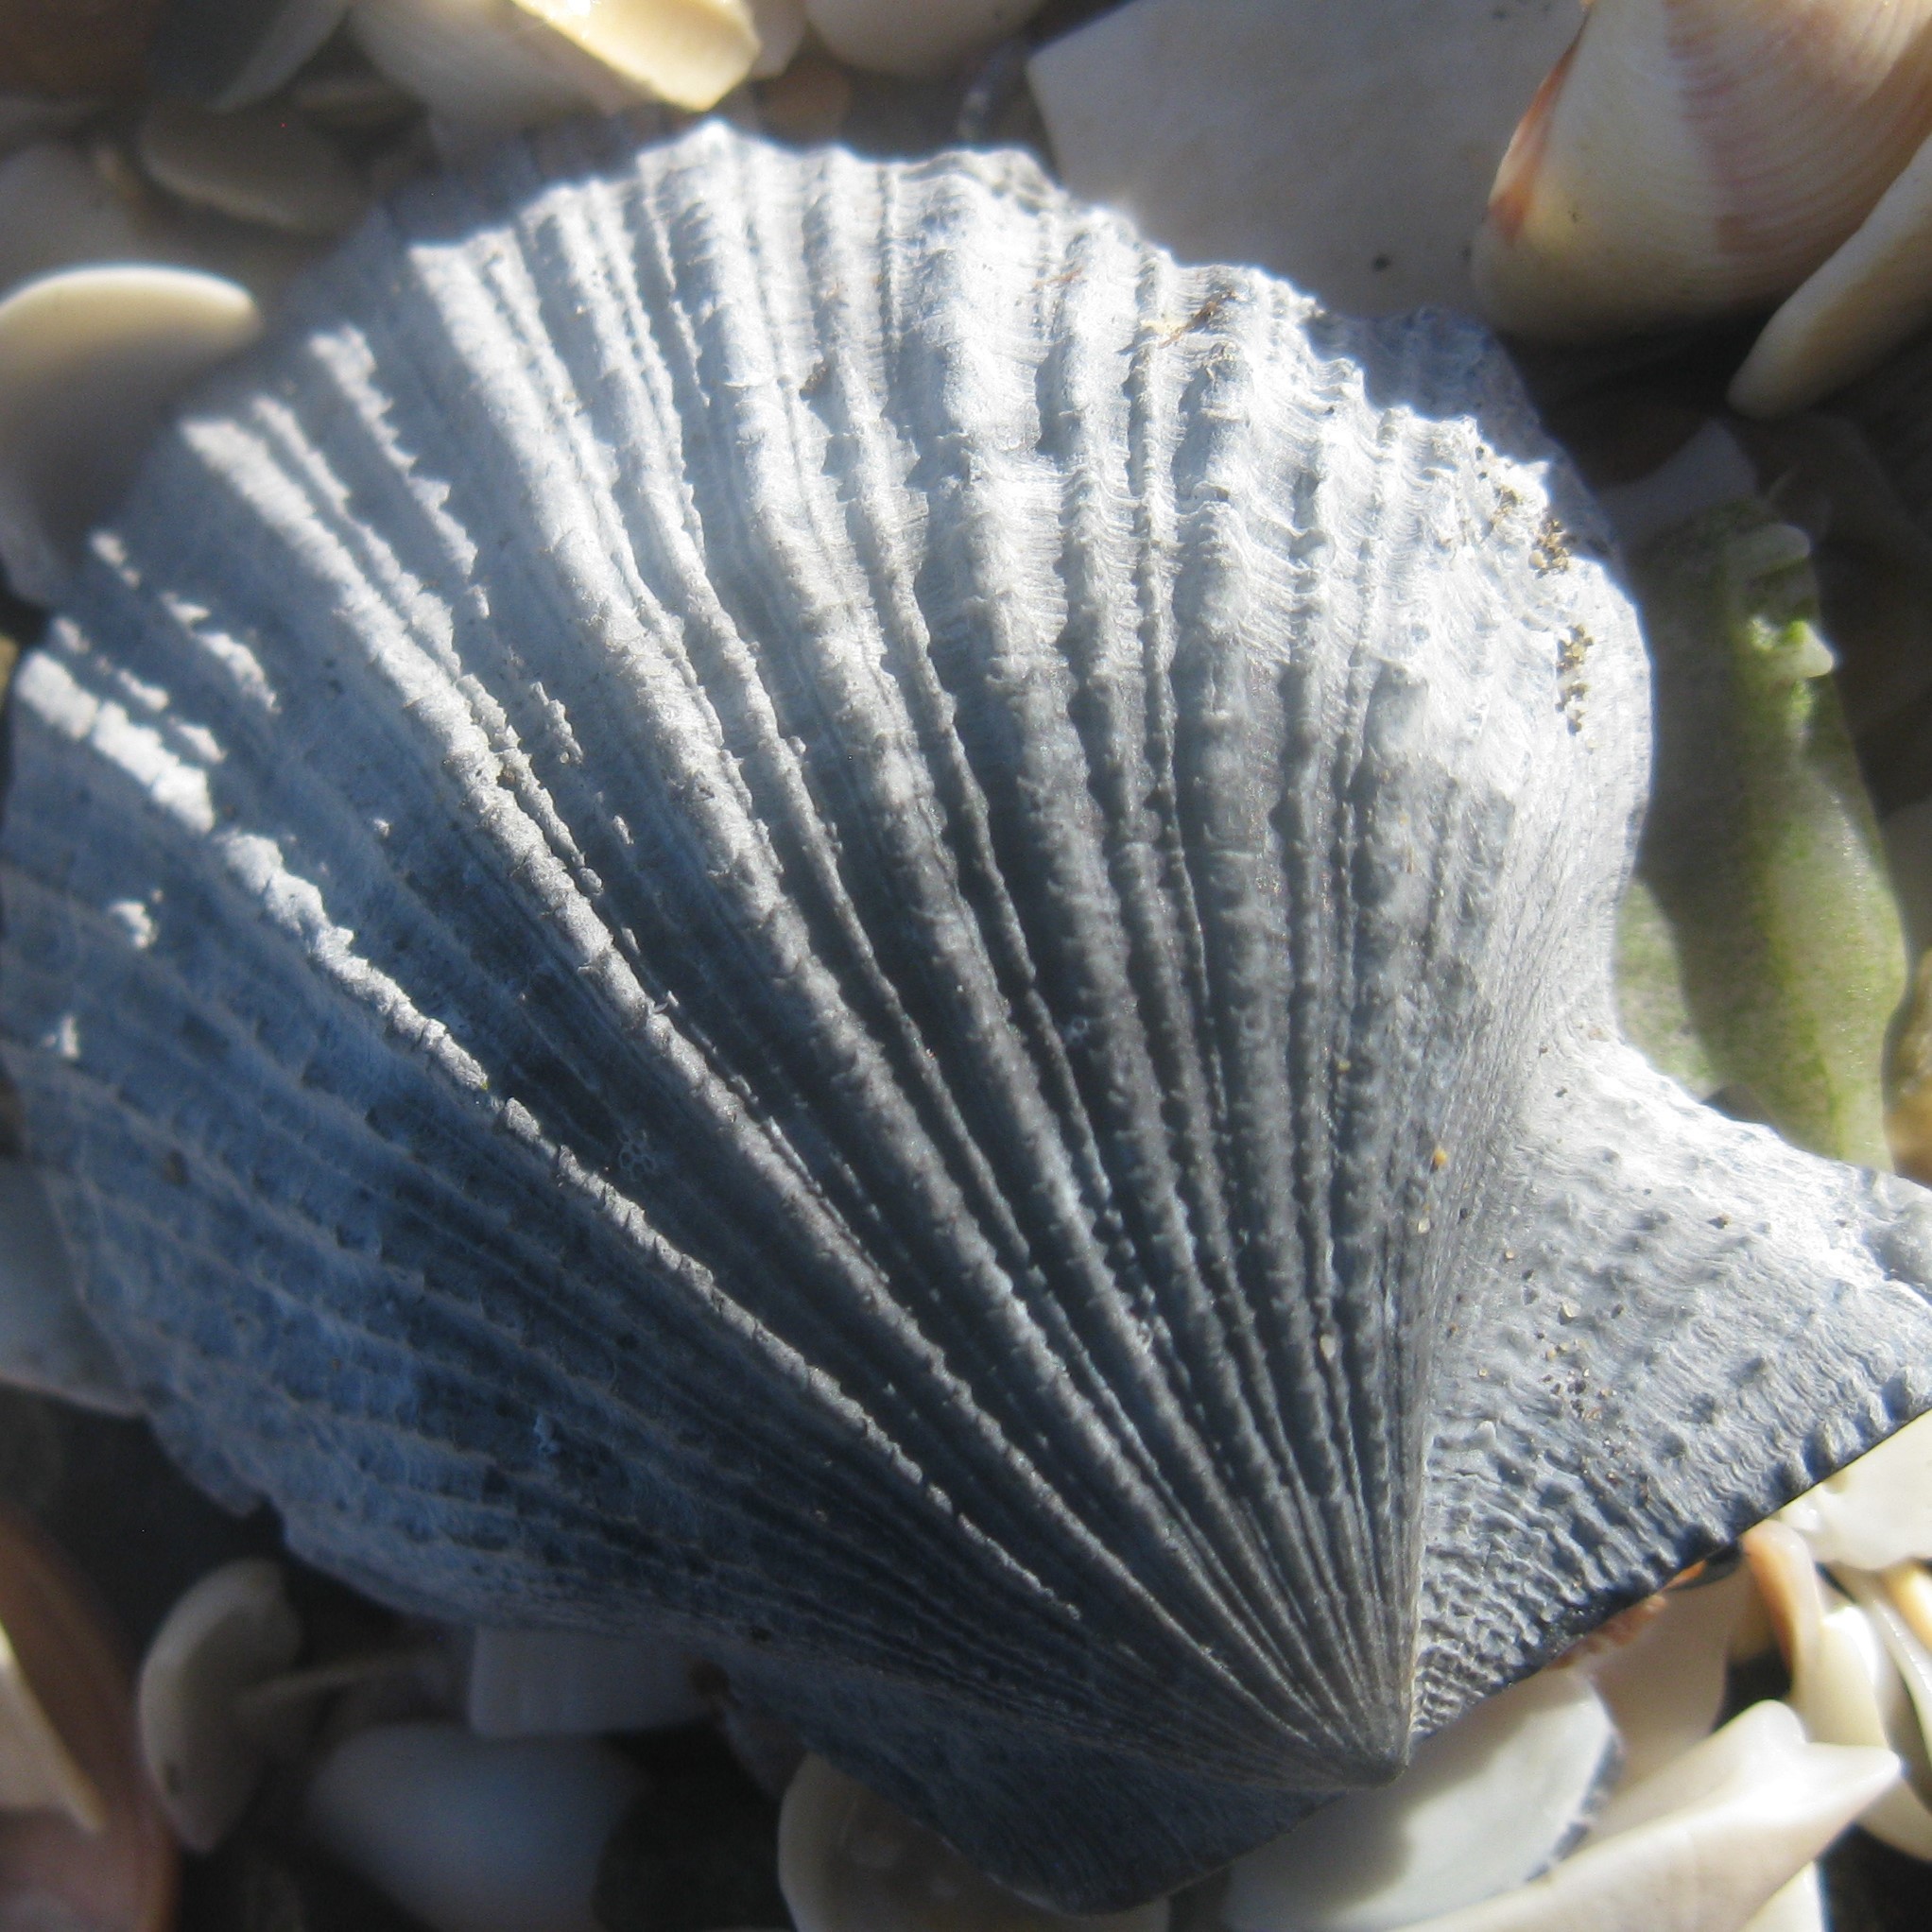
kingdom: Animalia
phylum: Mollusca
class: Bivalvia
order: Pectinida
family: Pectinidae
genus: Talochlamys
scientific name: Talochlamys zelandiae
